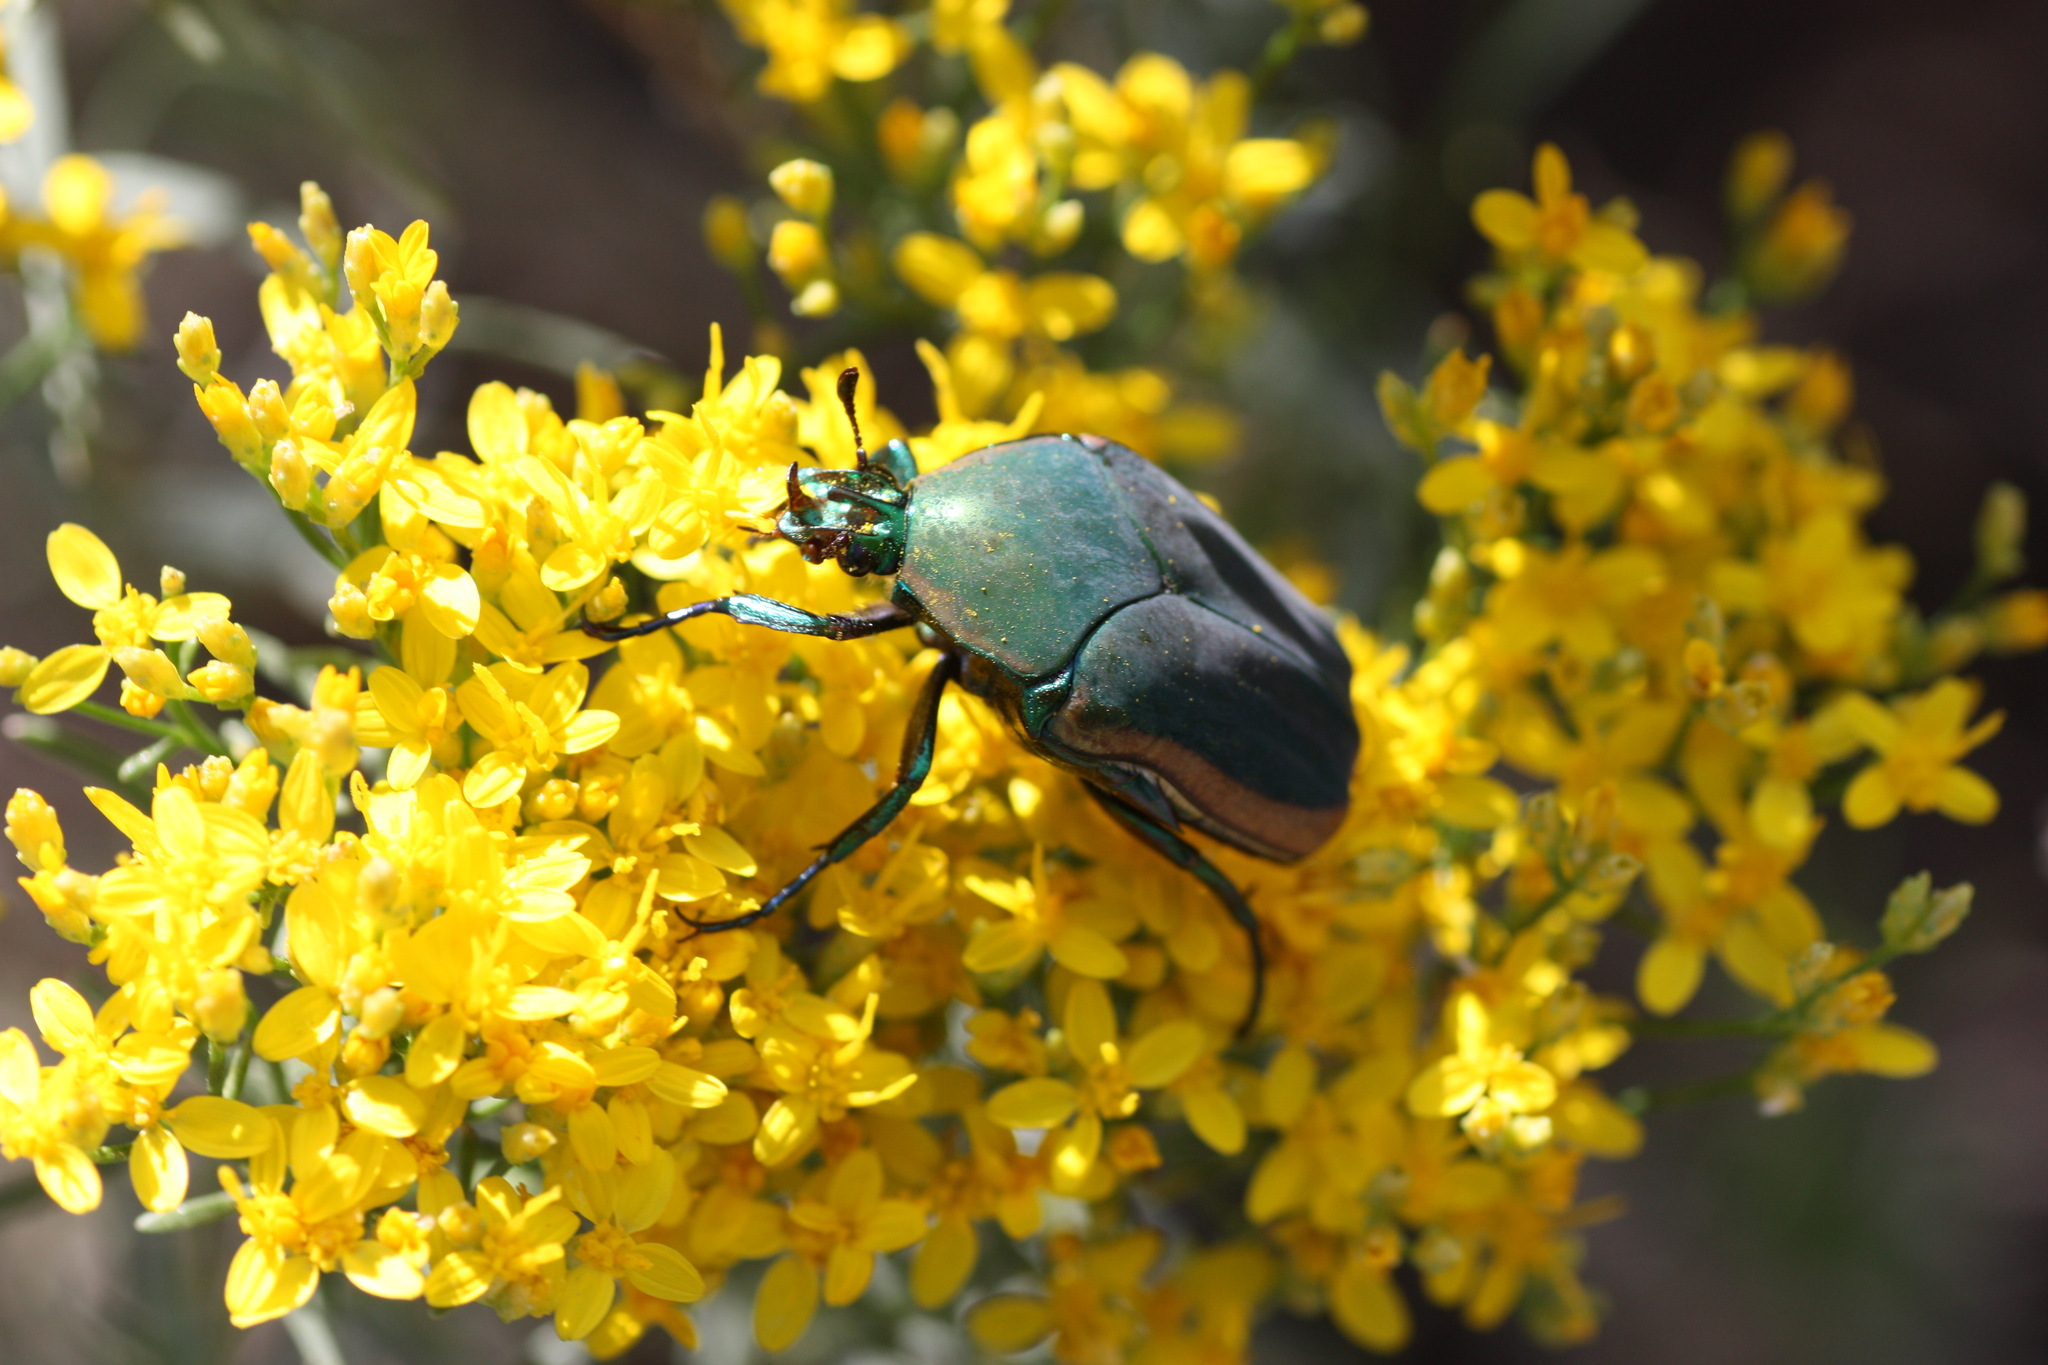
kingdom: Animalia
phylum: Arthropoda
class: Insecta
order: Coleoptera
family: Scarabaeidae
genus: Cotinis
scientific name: Cotinis mutabilis
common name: Figeater beetle
